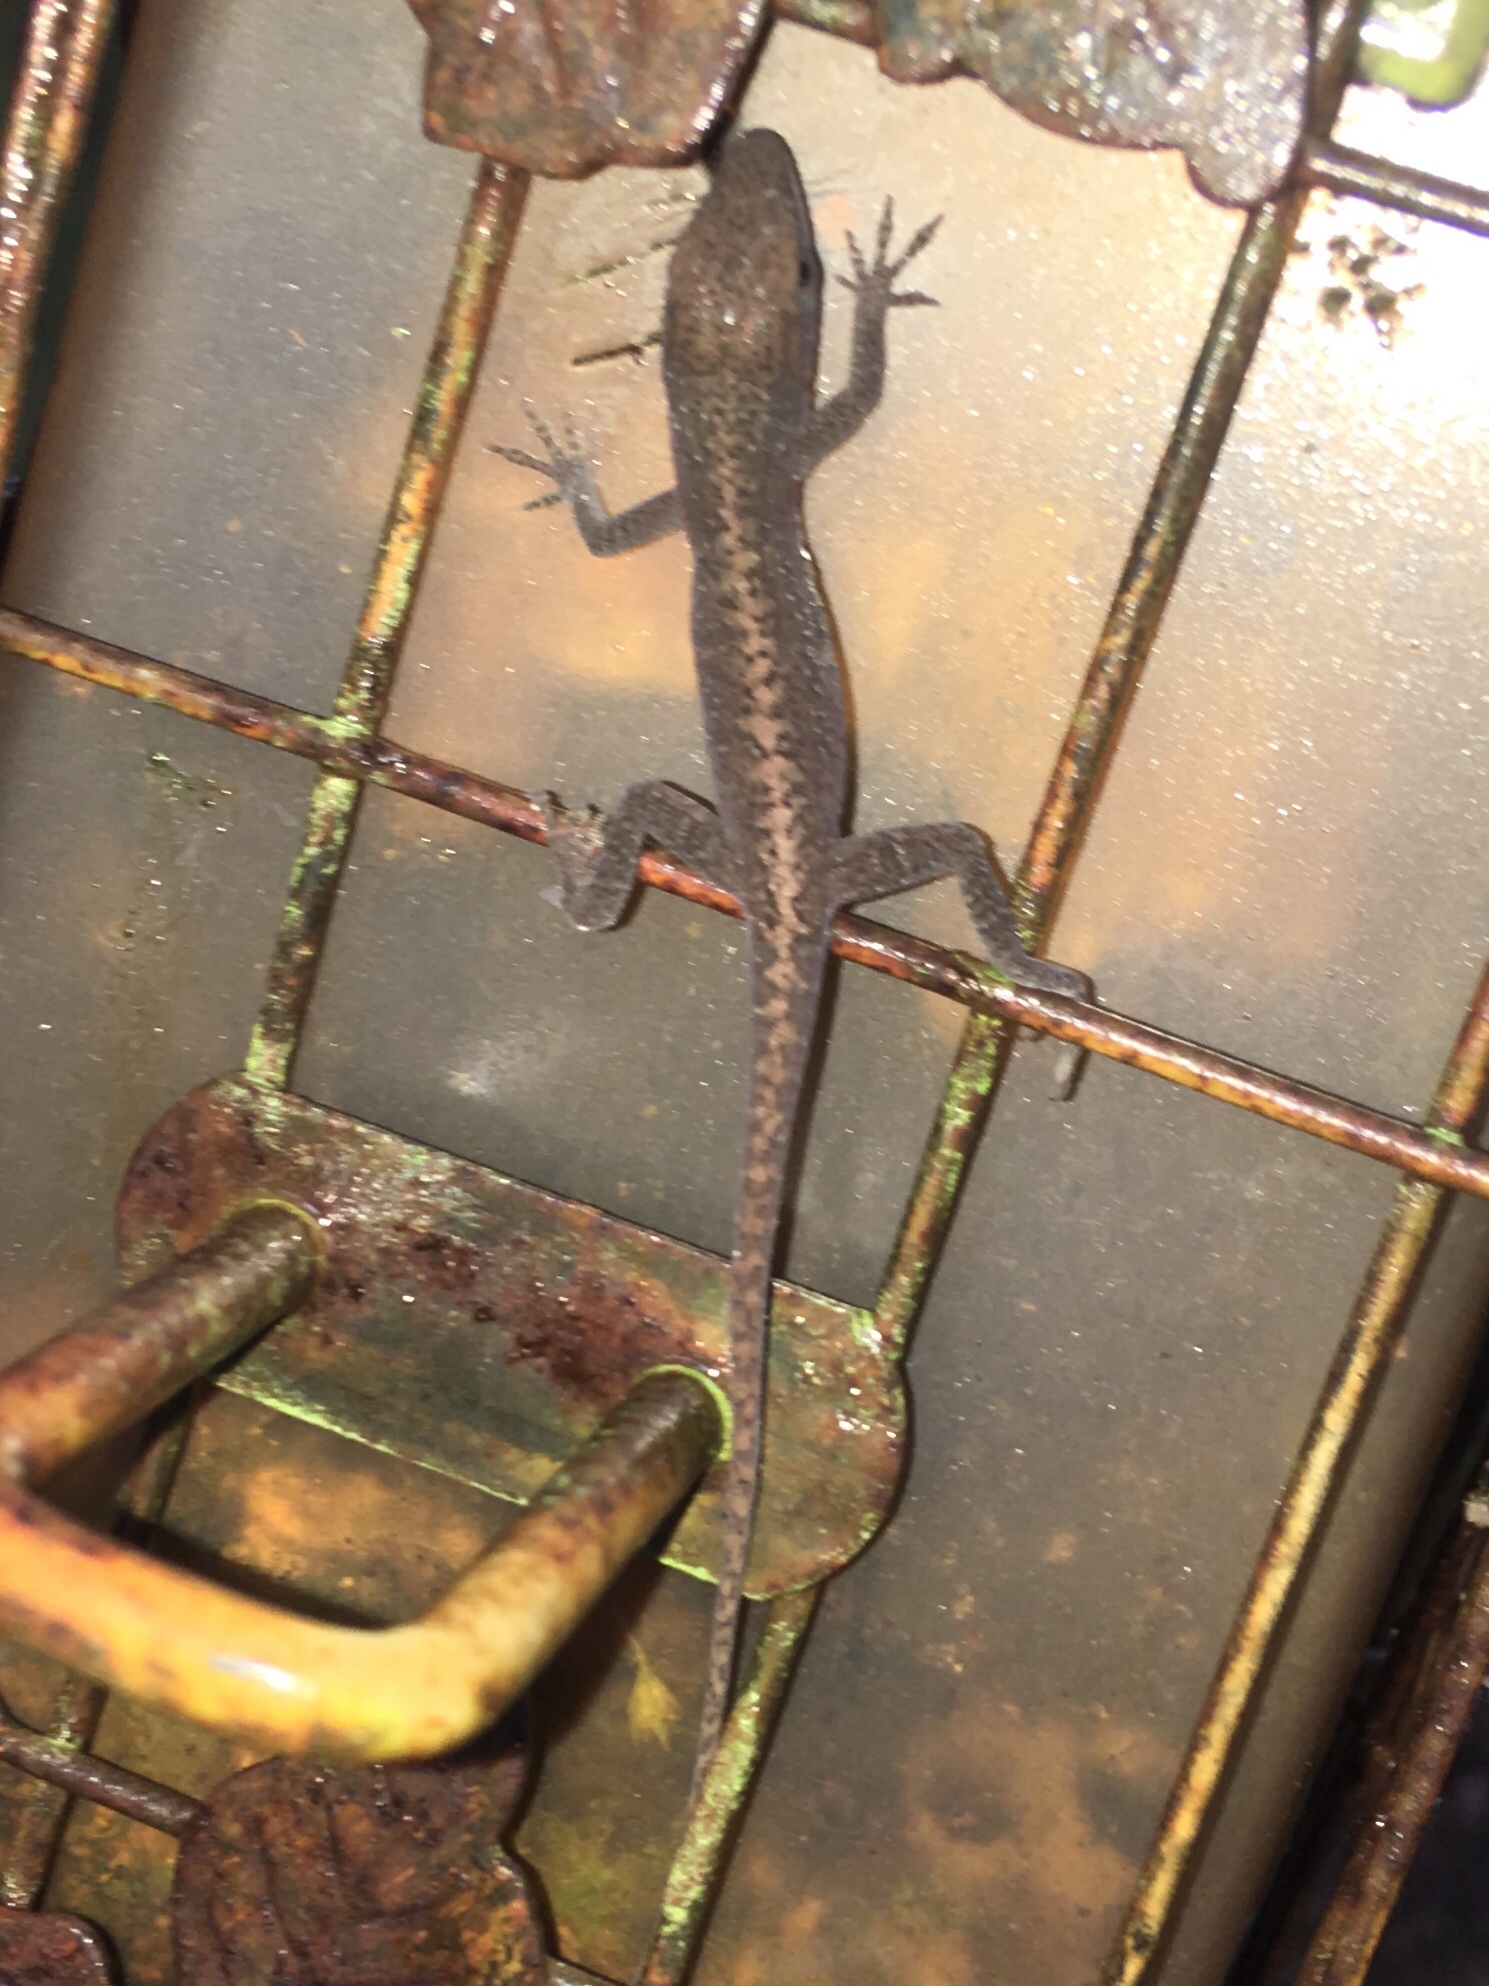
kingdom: Animalia
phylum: Chordata
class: Squamata
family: Dactyloidae
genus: Anolis
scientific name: Anolis carolinensis
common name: Green anole
